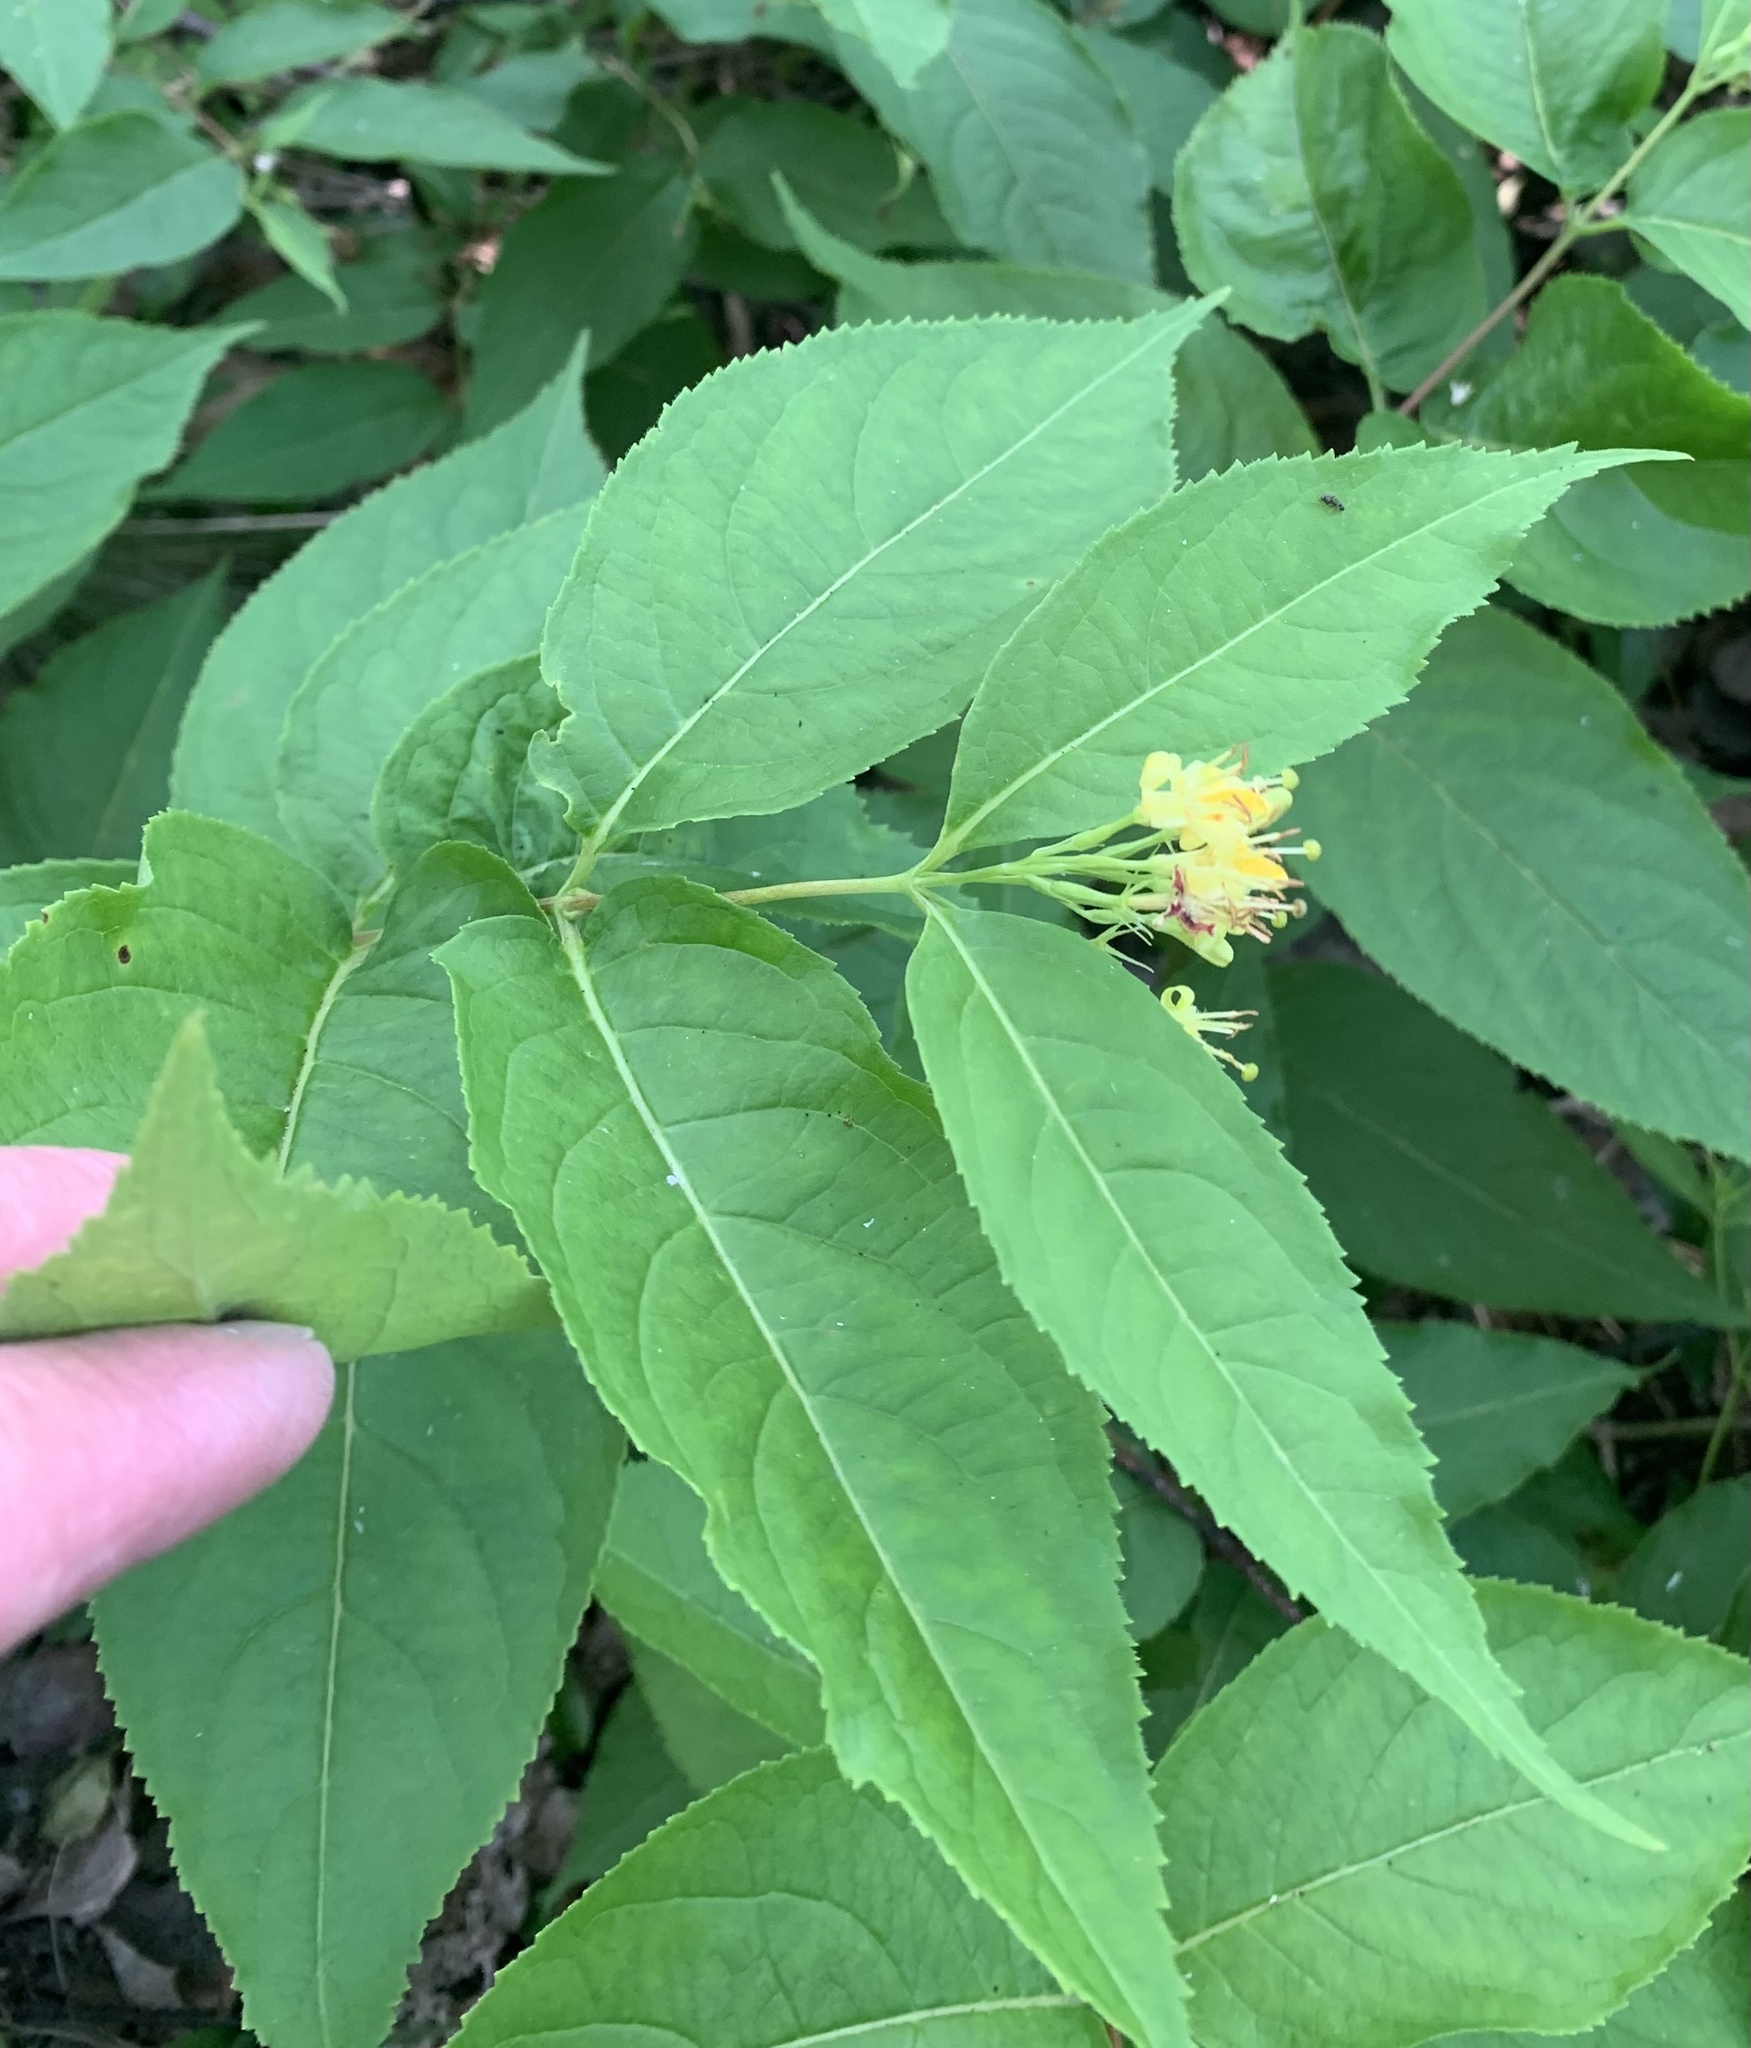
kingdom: Plantae
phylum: Tracheophyta
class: Magnoliopsida
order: Dipsacales
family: Caprifoliaceae
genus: Diervilla
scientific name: Diervilla lonicera
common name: Bush-honeysuckle
